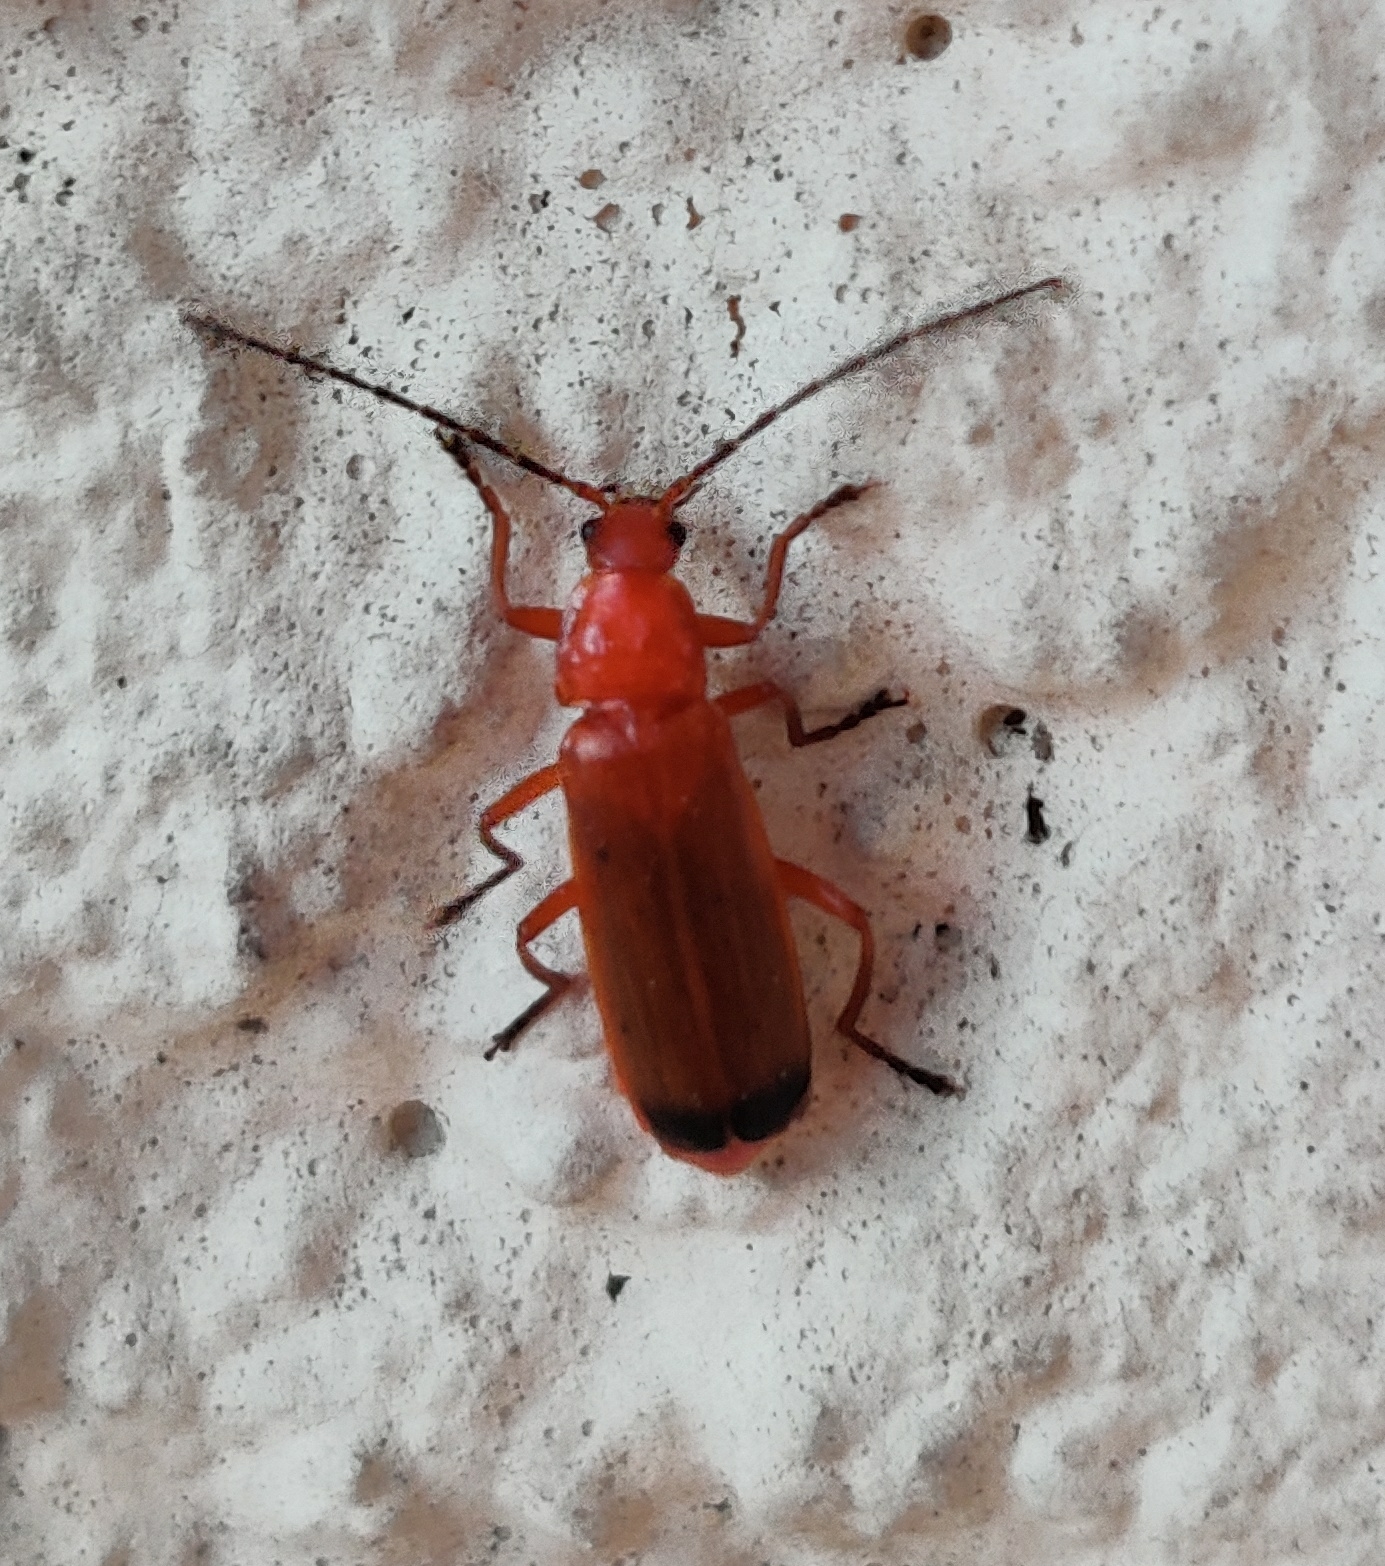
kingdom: Animalia
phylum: Arthropoda
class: Insecta
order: Coleoptera
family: Cantharidae
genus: Rhagonycha
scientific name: Rhagonycha fulva
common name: Common red soldier beetle
